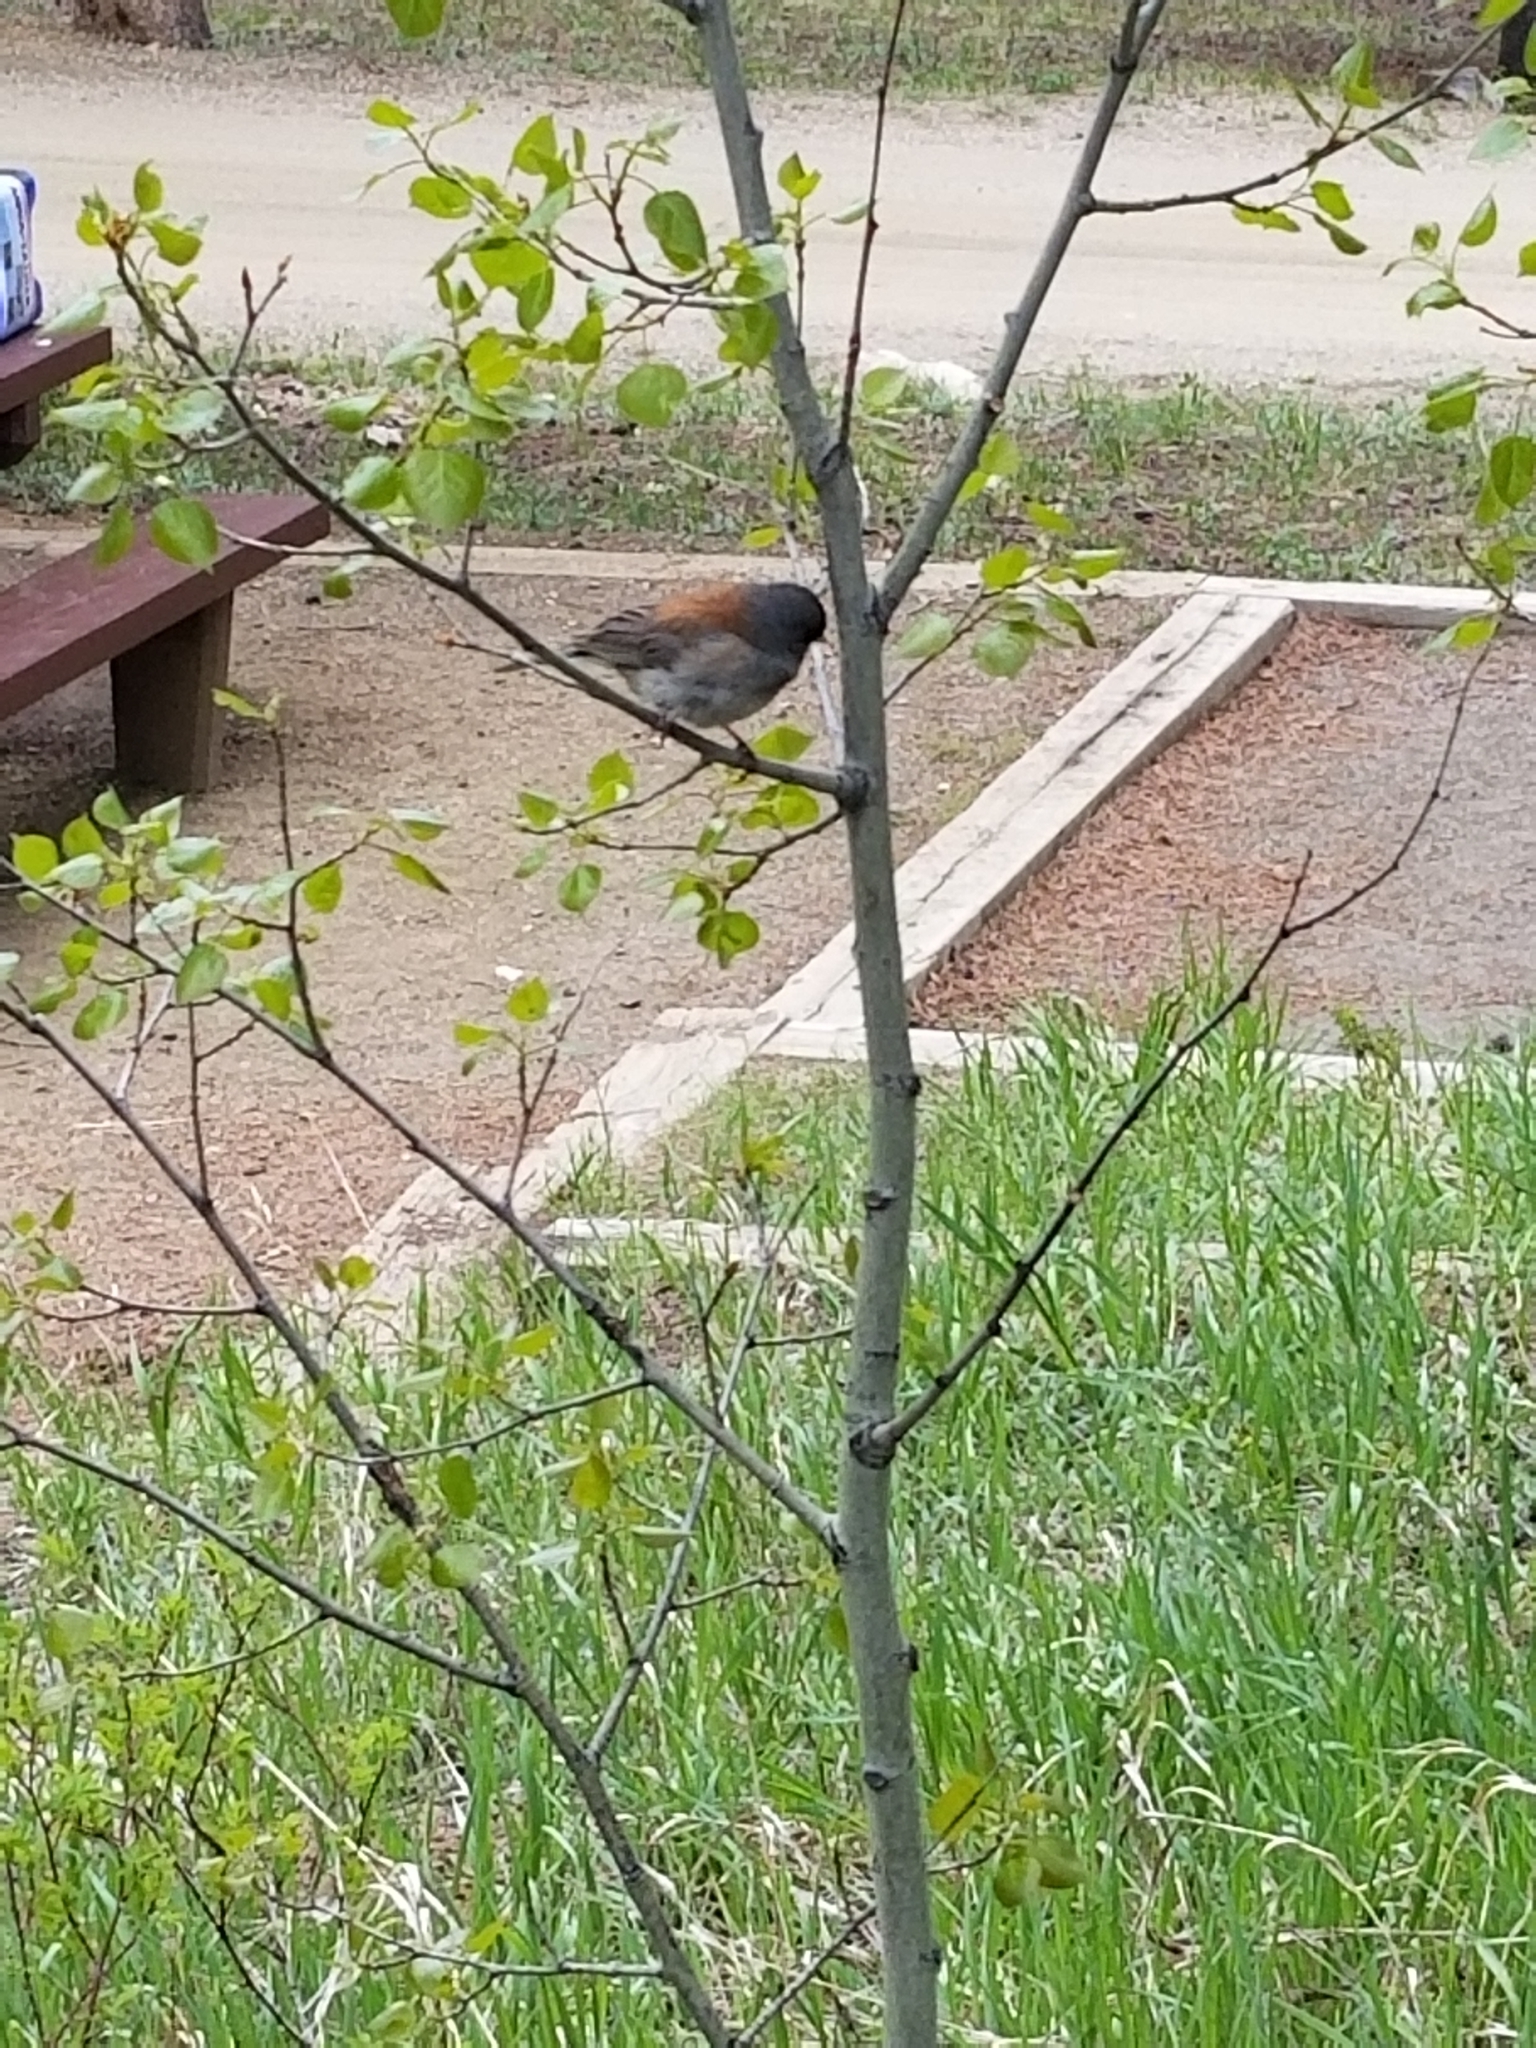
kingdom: Animalia
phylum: Chordata
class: Aves
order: Passeriformes
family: Passerellidae
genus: Junco
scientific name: Junco hyemalis
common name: Dark-eyed junco
